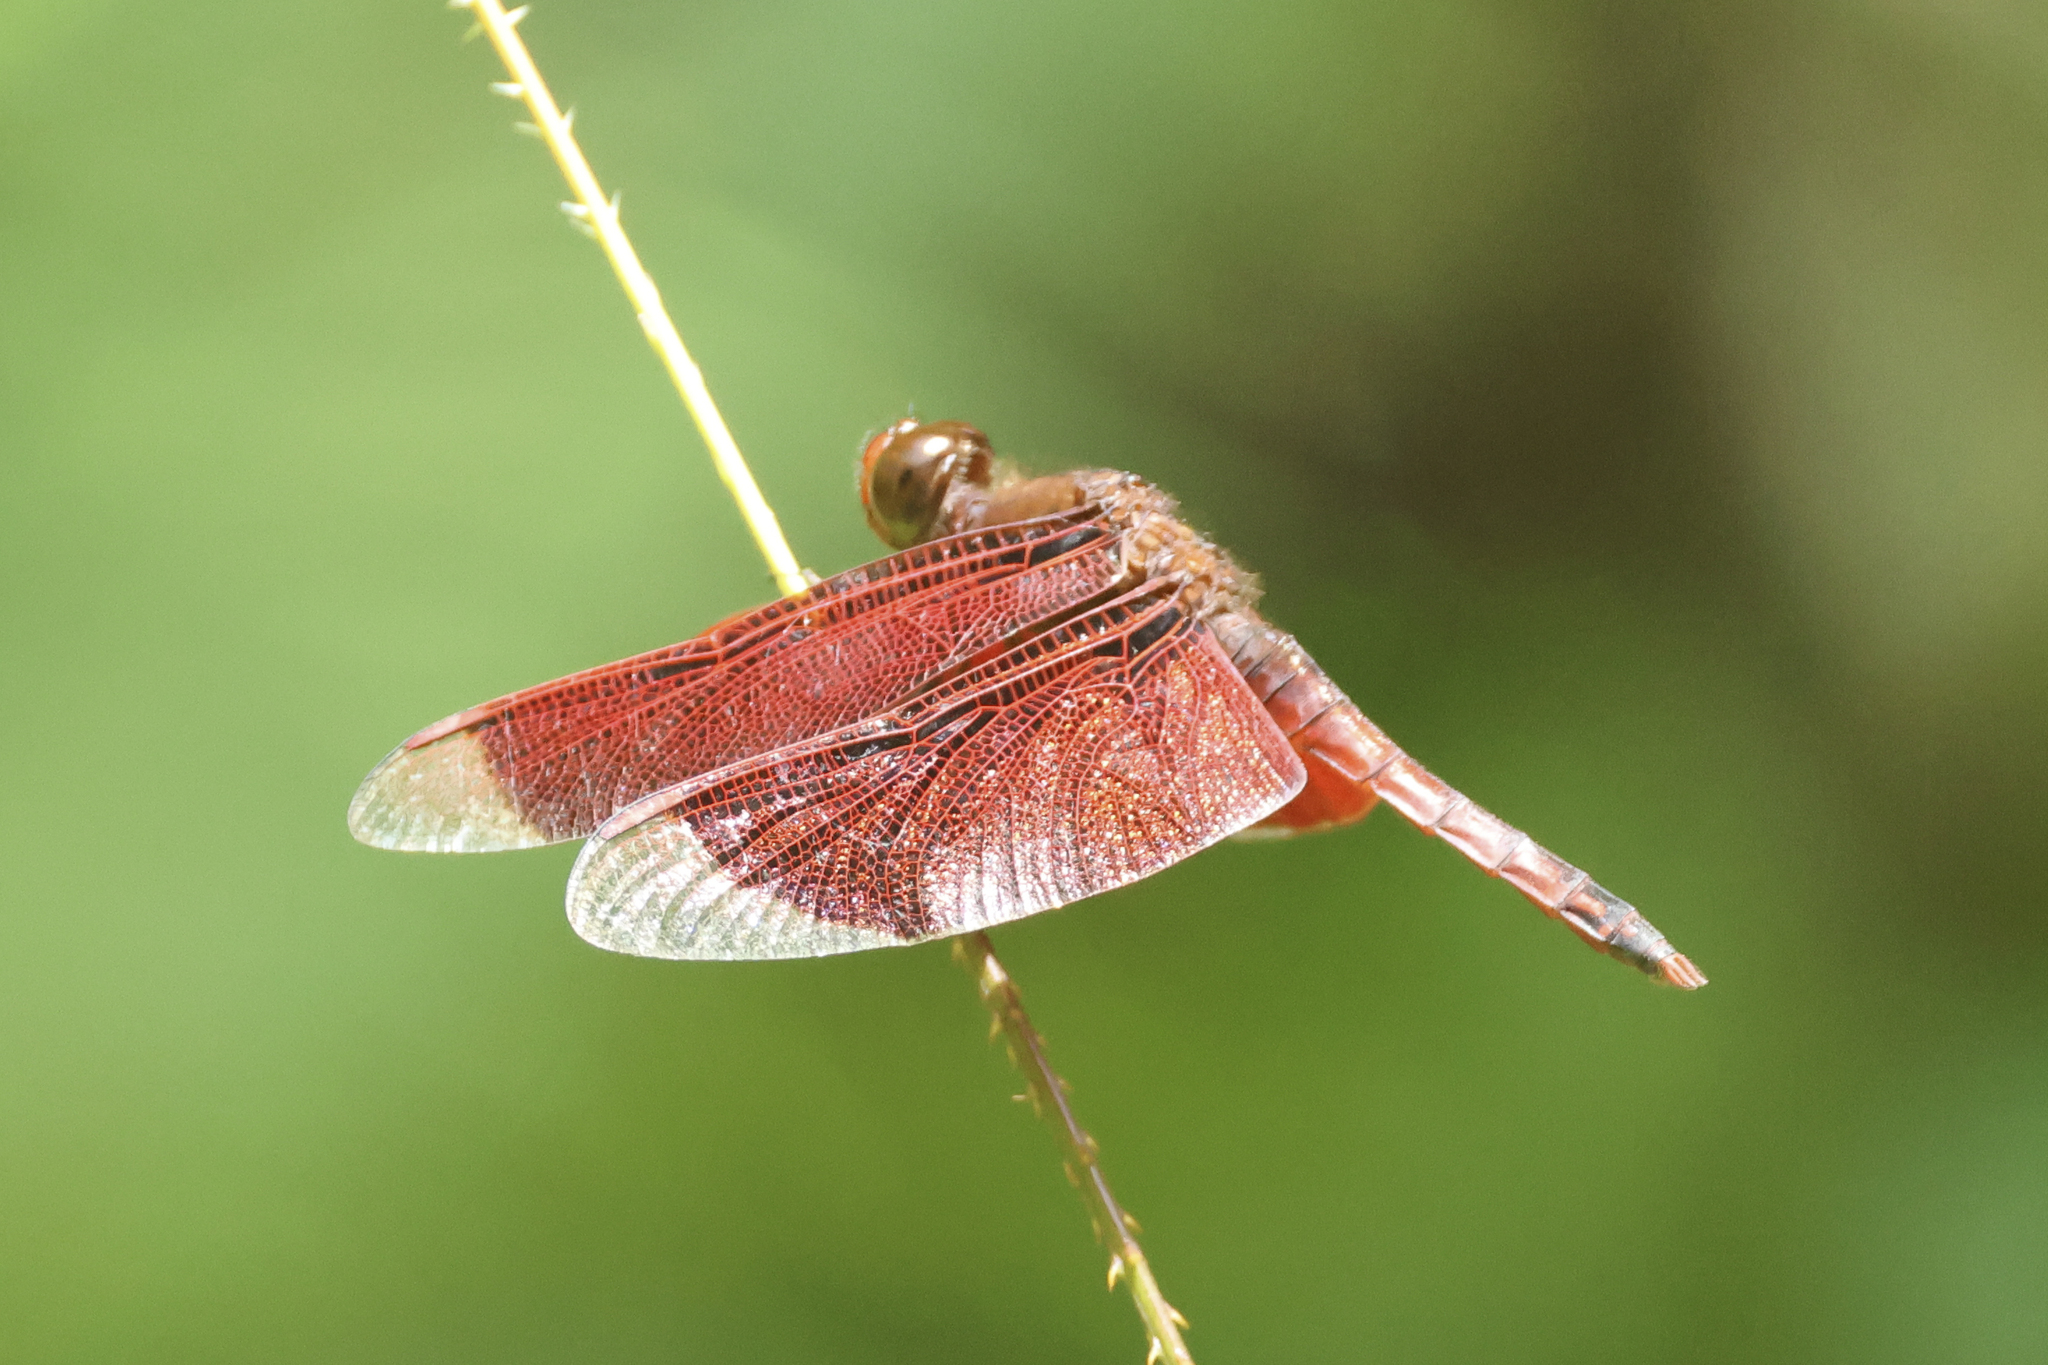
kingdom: Animalia
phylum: Arthropoda
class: Insecta
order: Odonata
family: Libellulidae
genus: Neurothemis
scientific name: Neurothemis ramburii
